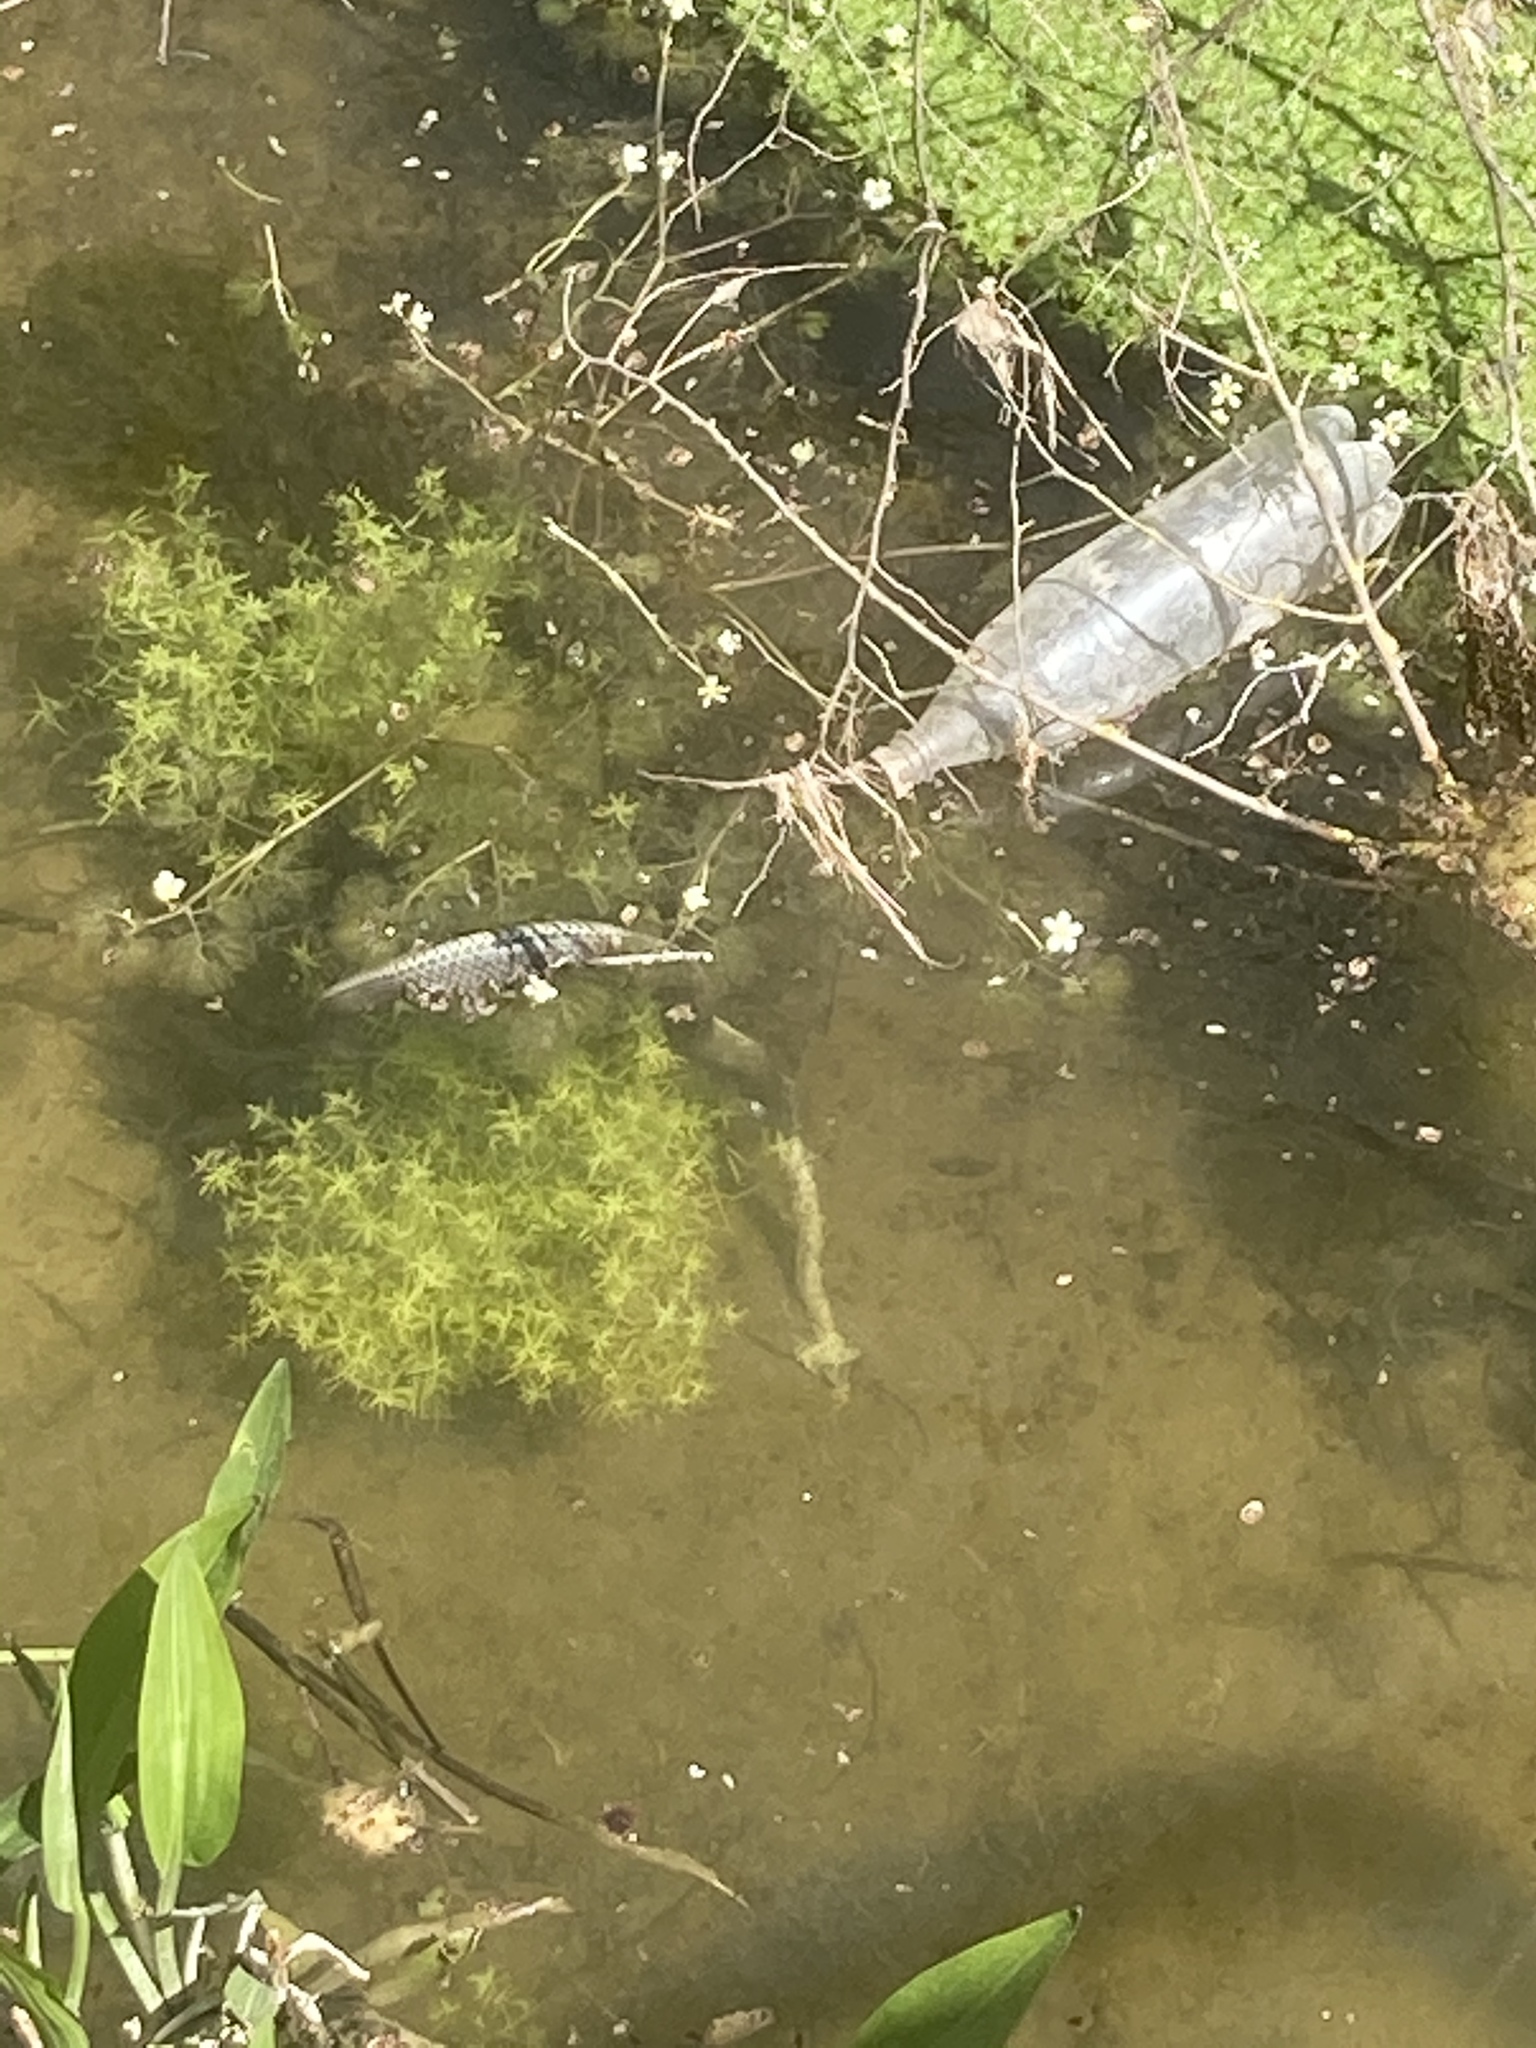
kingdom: Animalia
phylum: Chordata
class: Squamata
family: Psammophiidae
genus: Malpolon
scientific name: Malpolon insignitus
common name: Eastern montpellier snake
